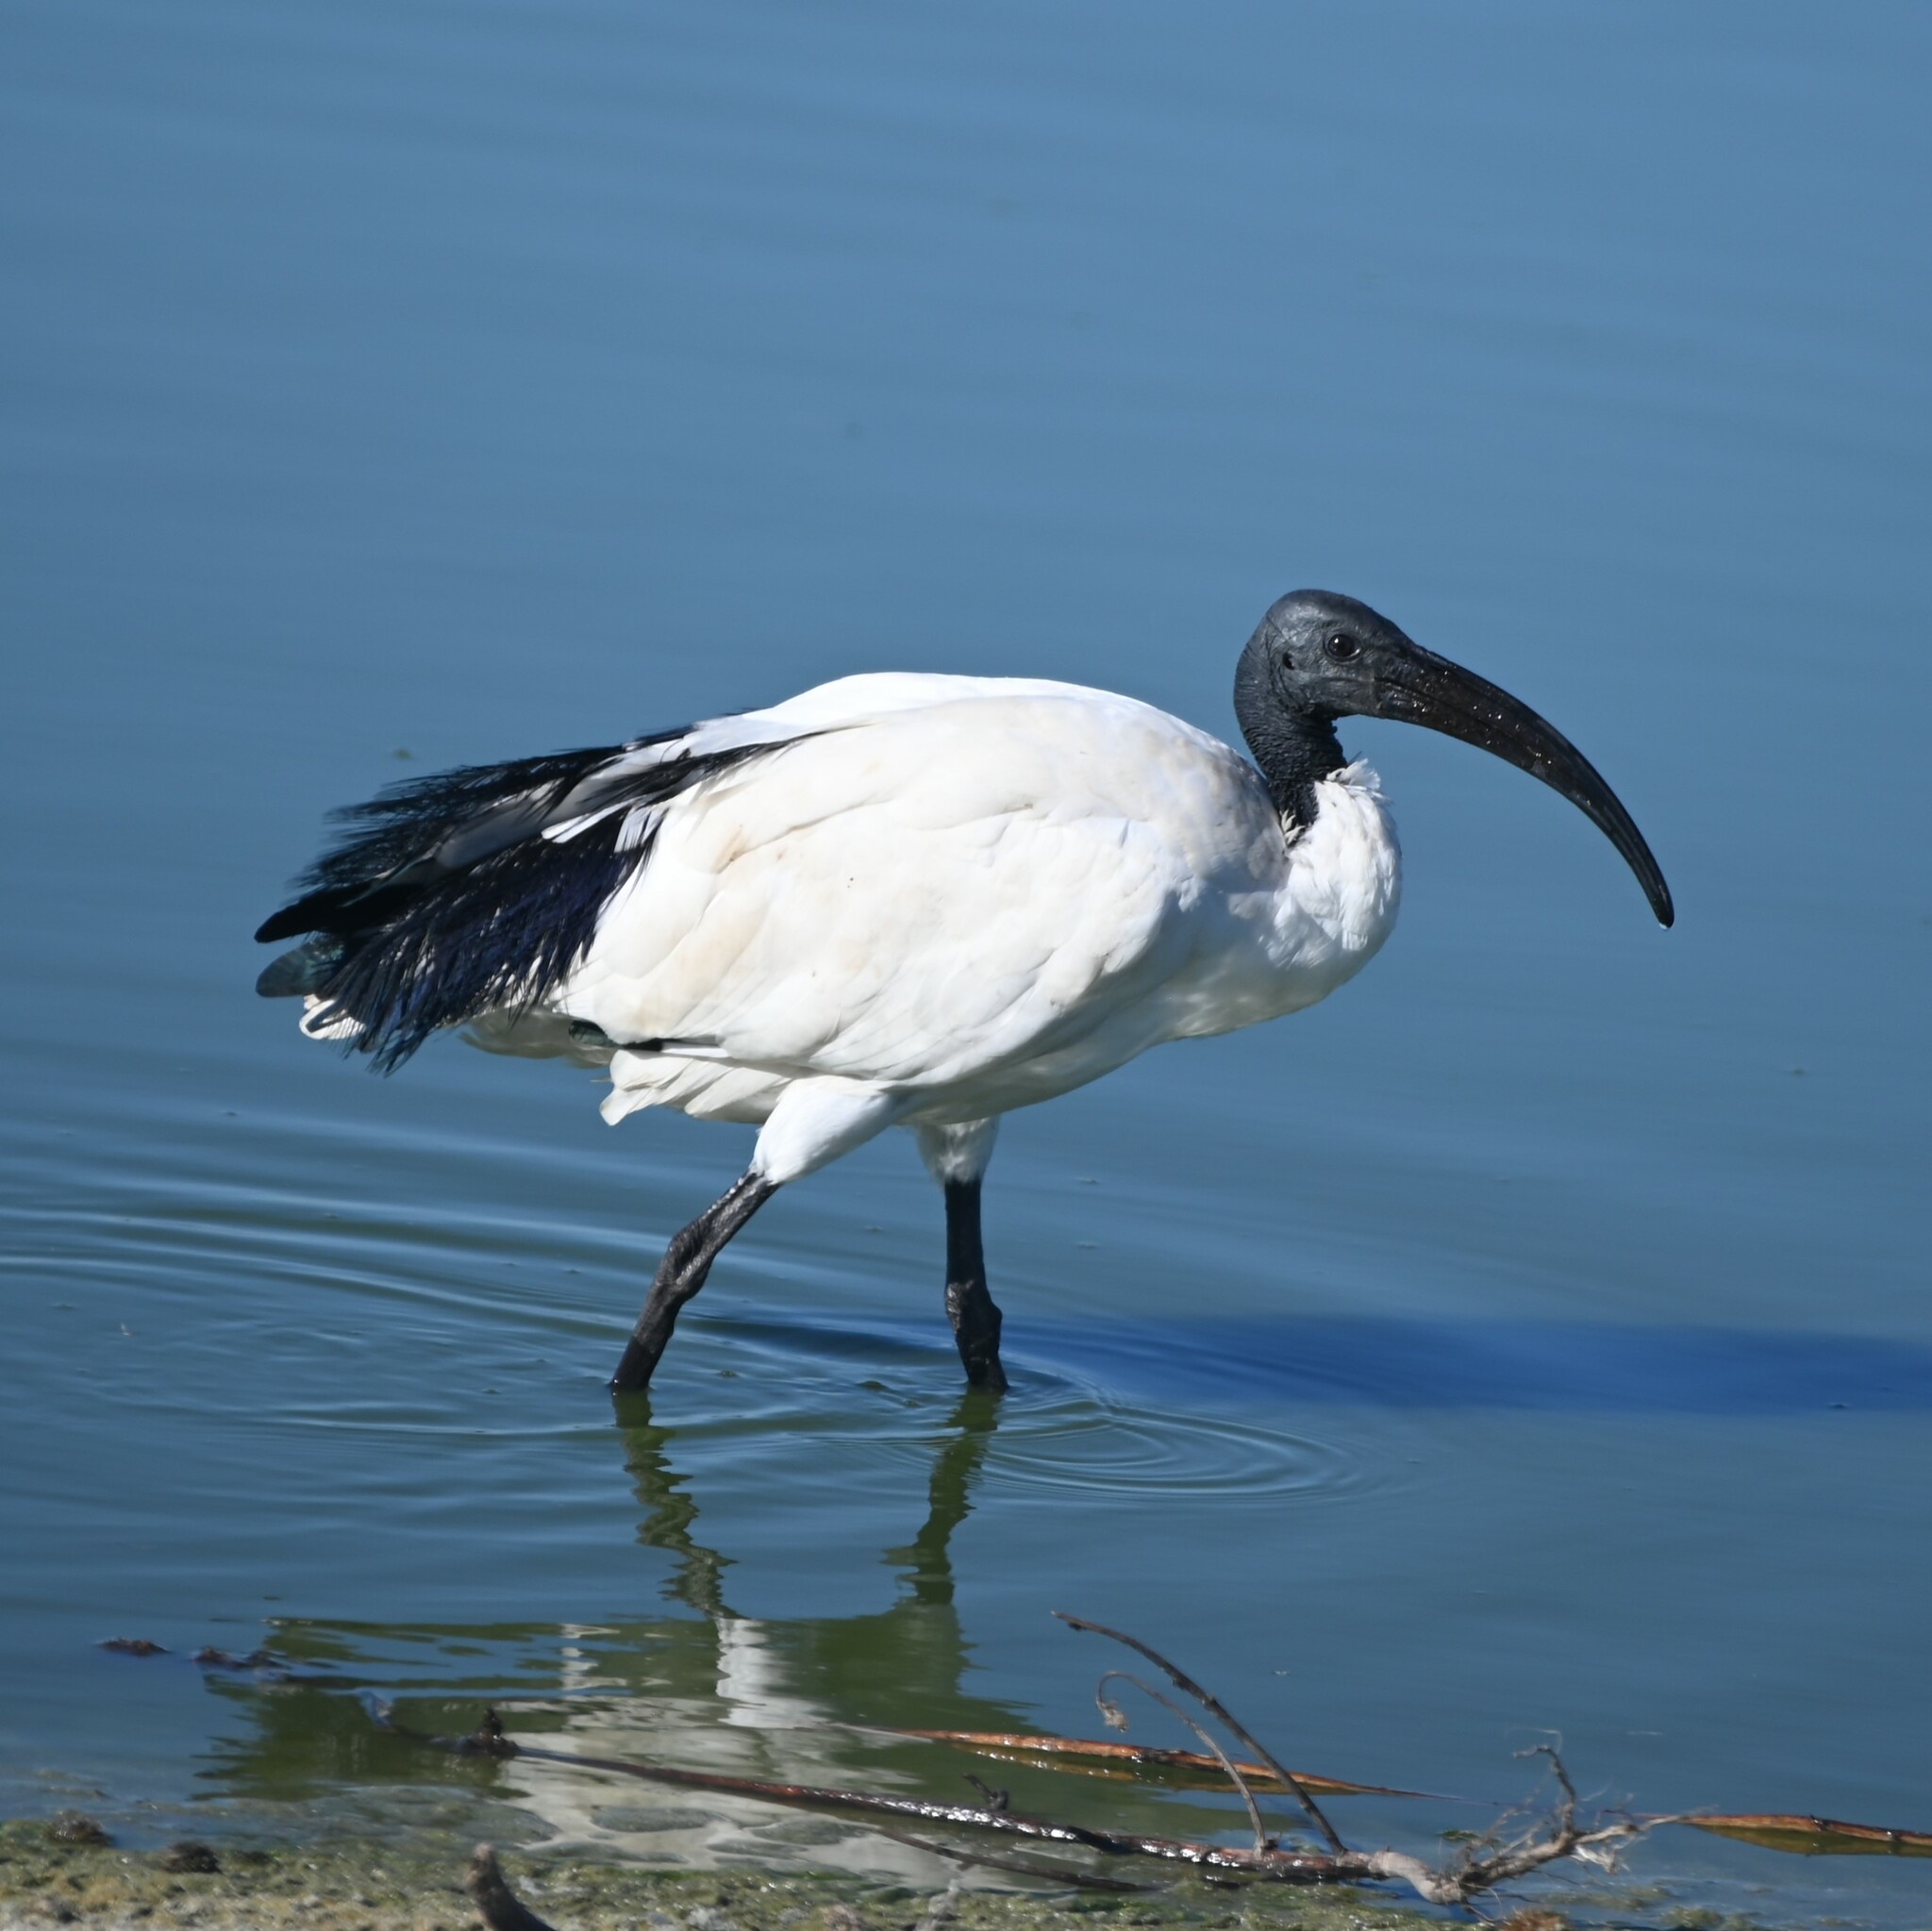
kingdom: Animalia
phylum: Chordata
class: Aves
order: Pelecaniformes
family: Threskiornithidae
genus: Threskiornis
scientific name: Threskiornis aethiopicus
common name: Sacred ibis
